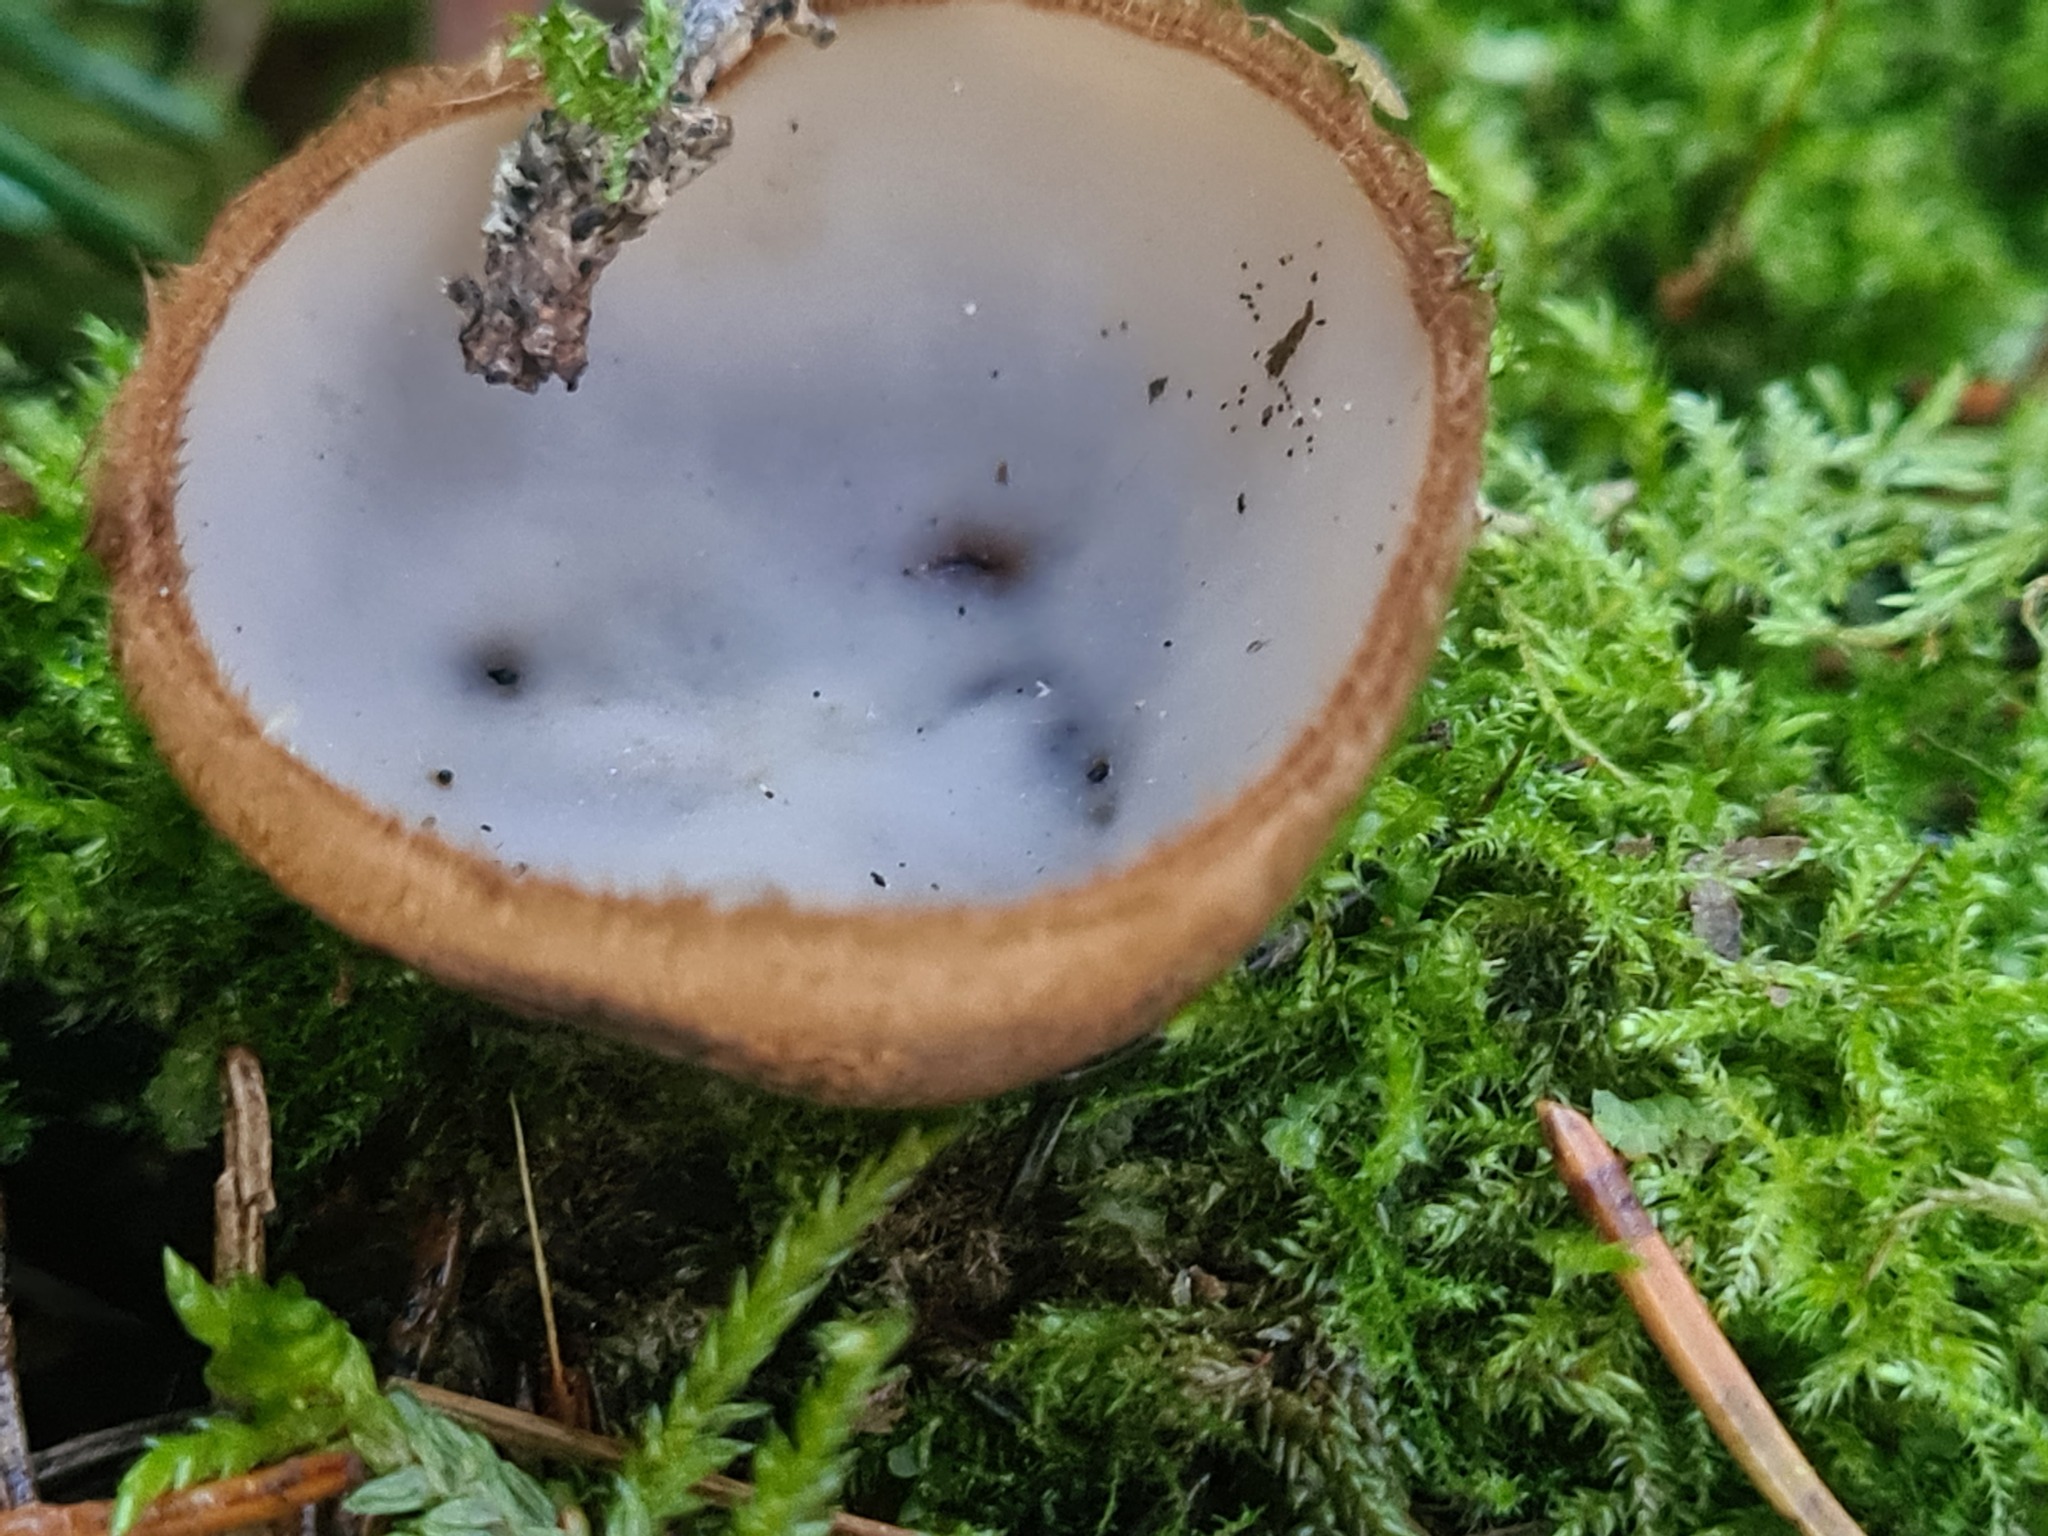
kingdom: Fungi
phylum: Ascomycota
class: Pezizomycetes
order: Pezizales
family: Pyronemataceae
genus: Humaria
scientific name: Humaria hemisphaerica
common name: Glazed cup
